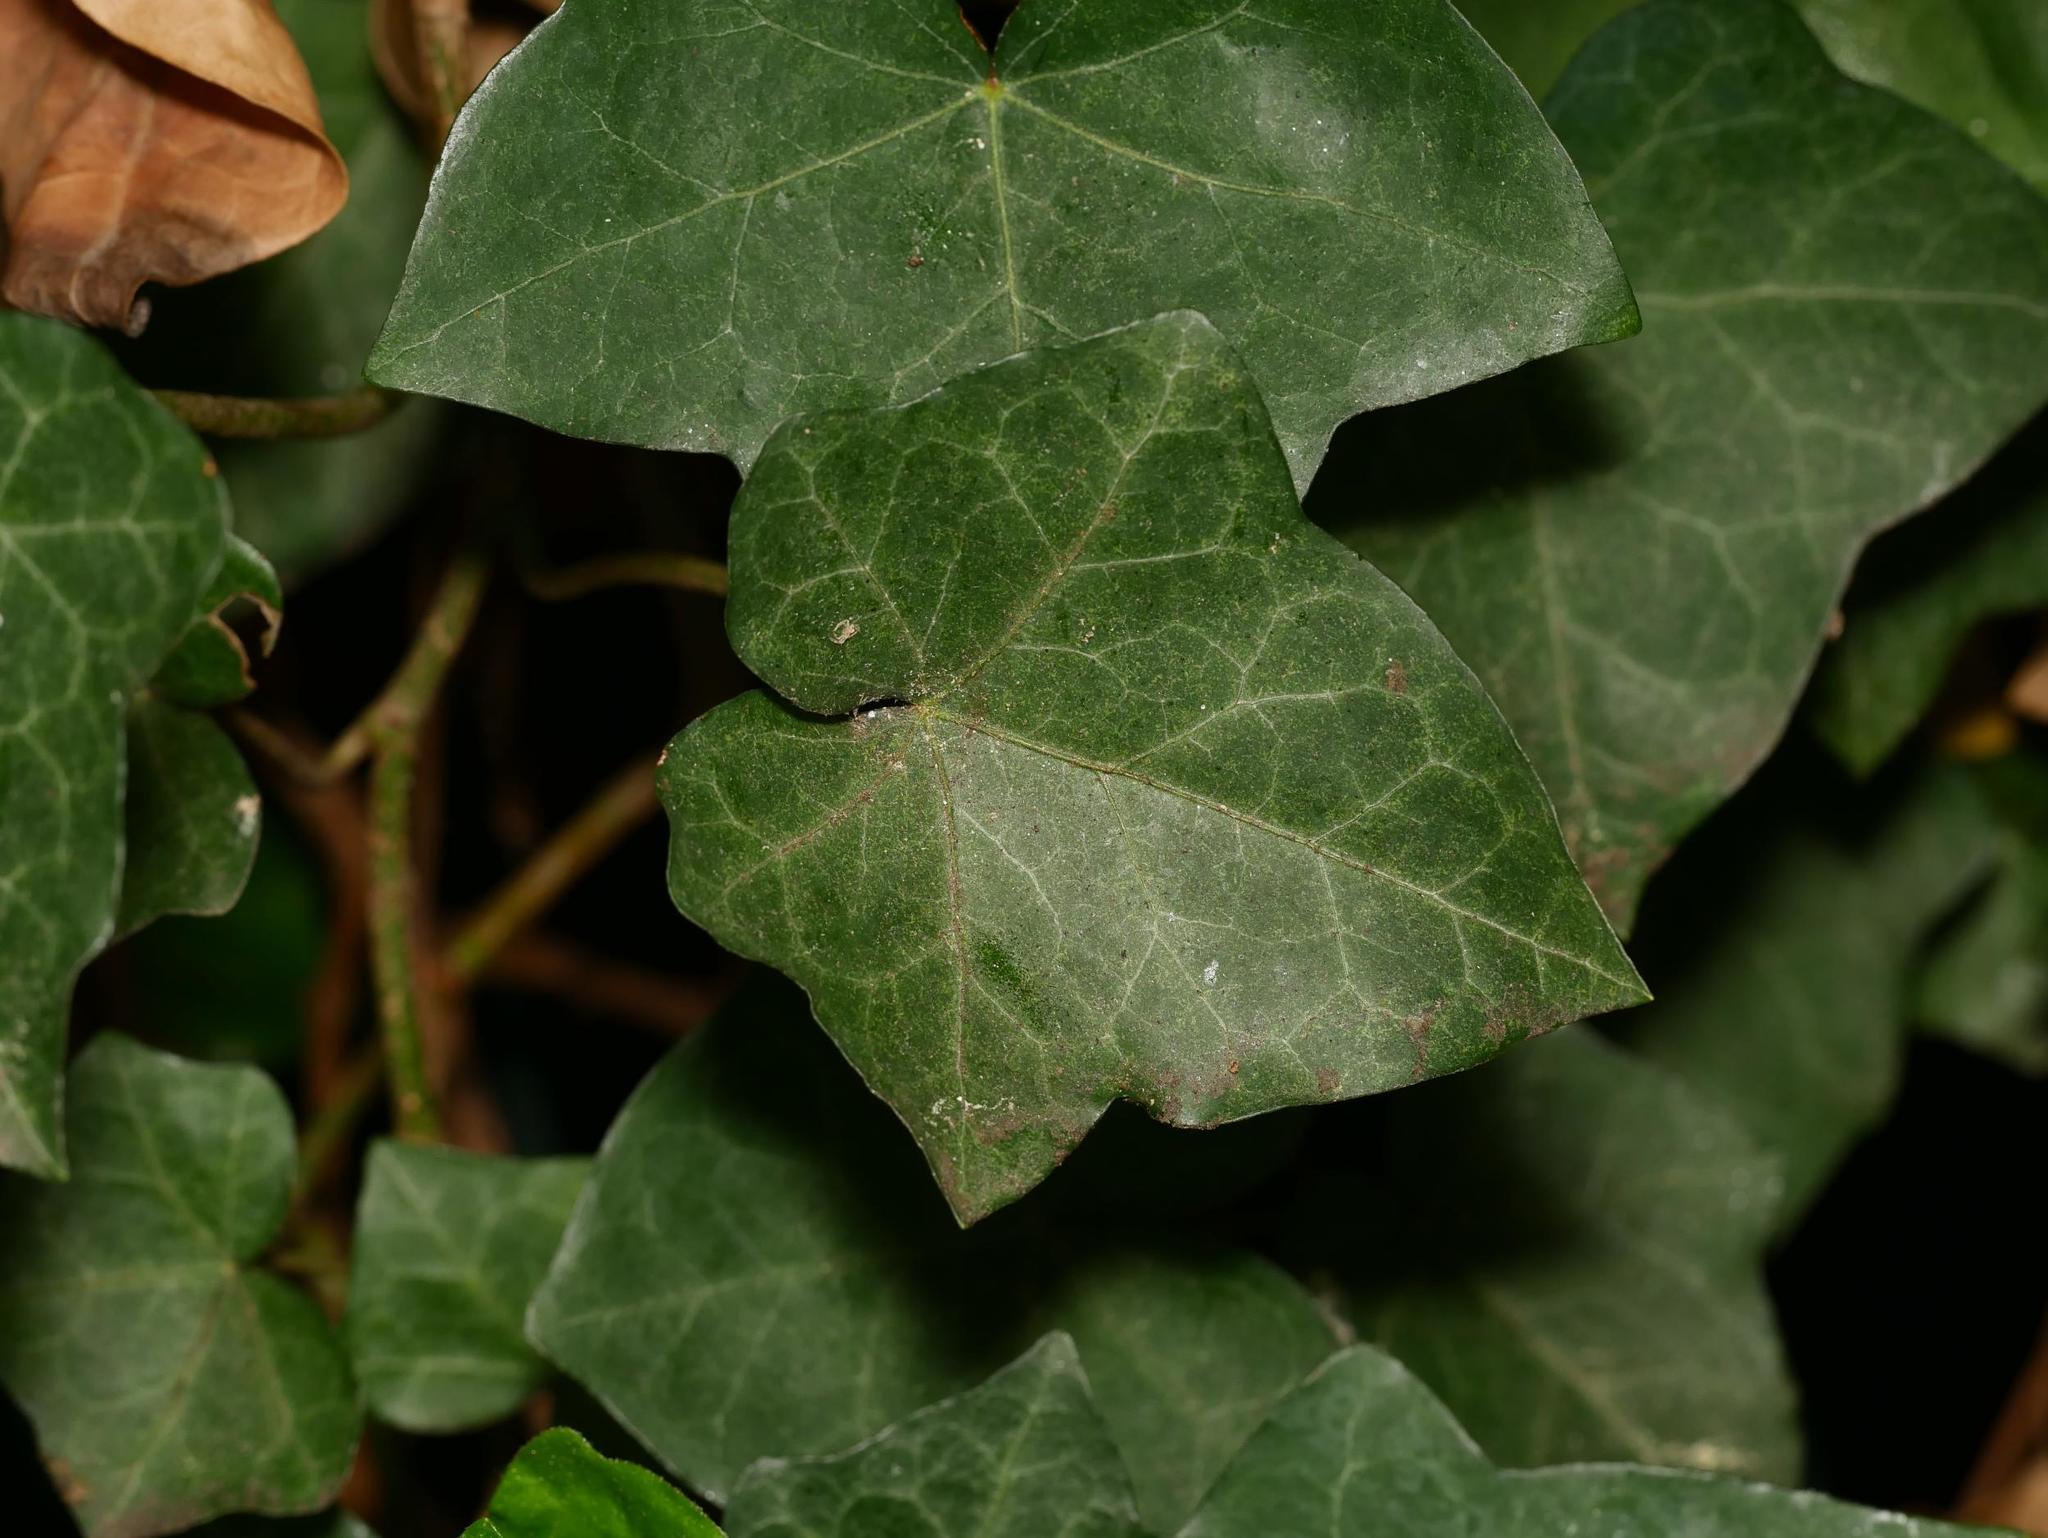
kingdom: Plantae
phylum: Tracheophyta
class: Magnoliopsida
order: Apiales
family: Araliaceae
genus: Hedera
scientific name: Hedera helix
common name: Ivy
